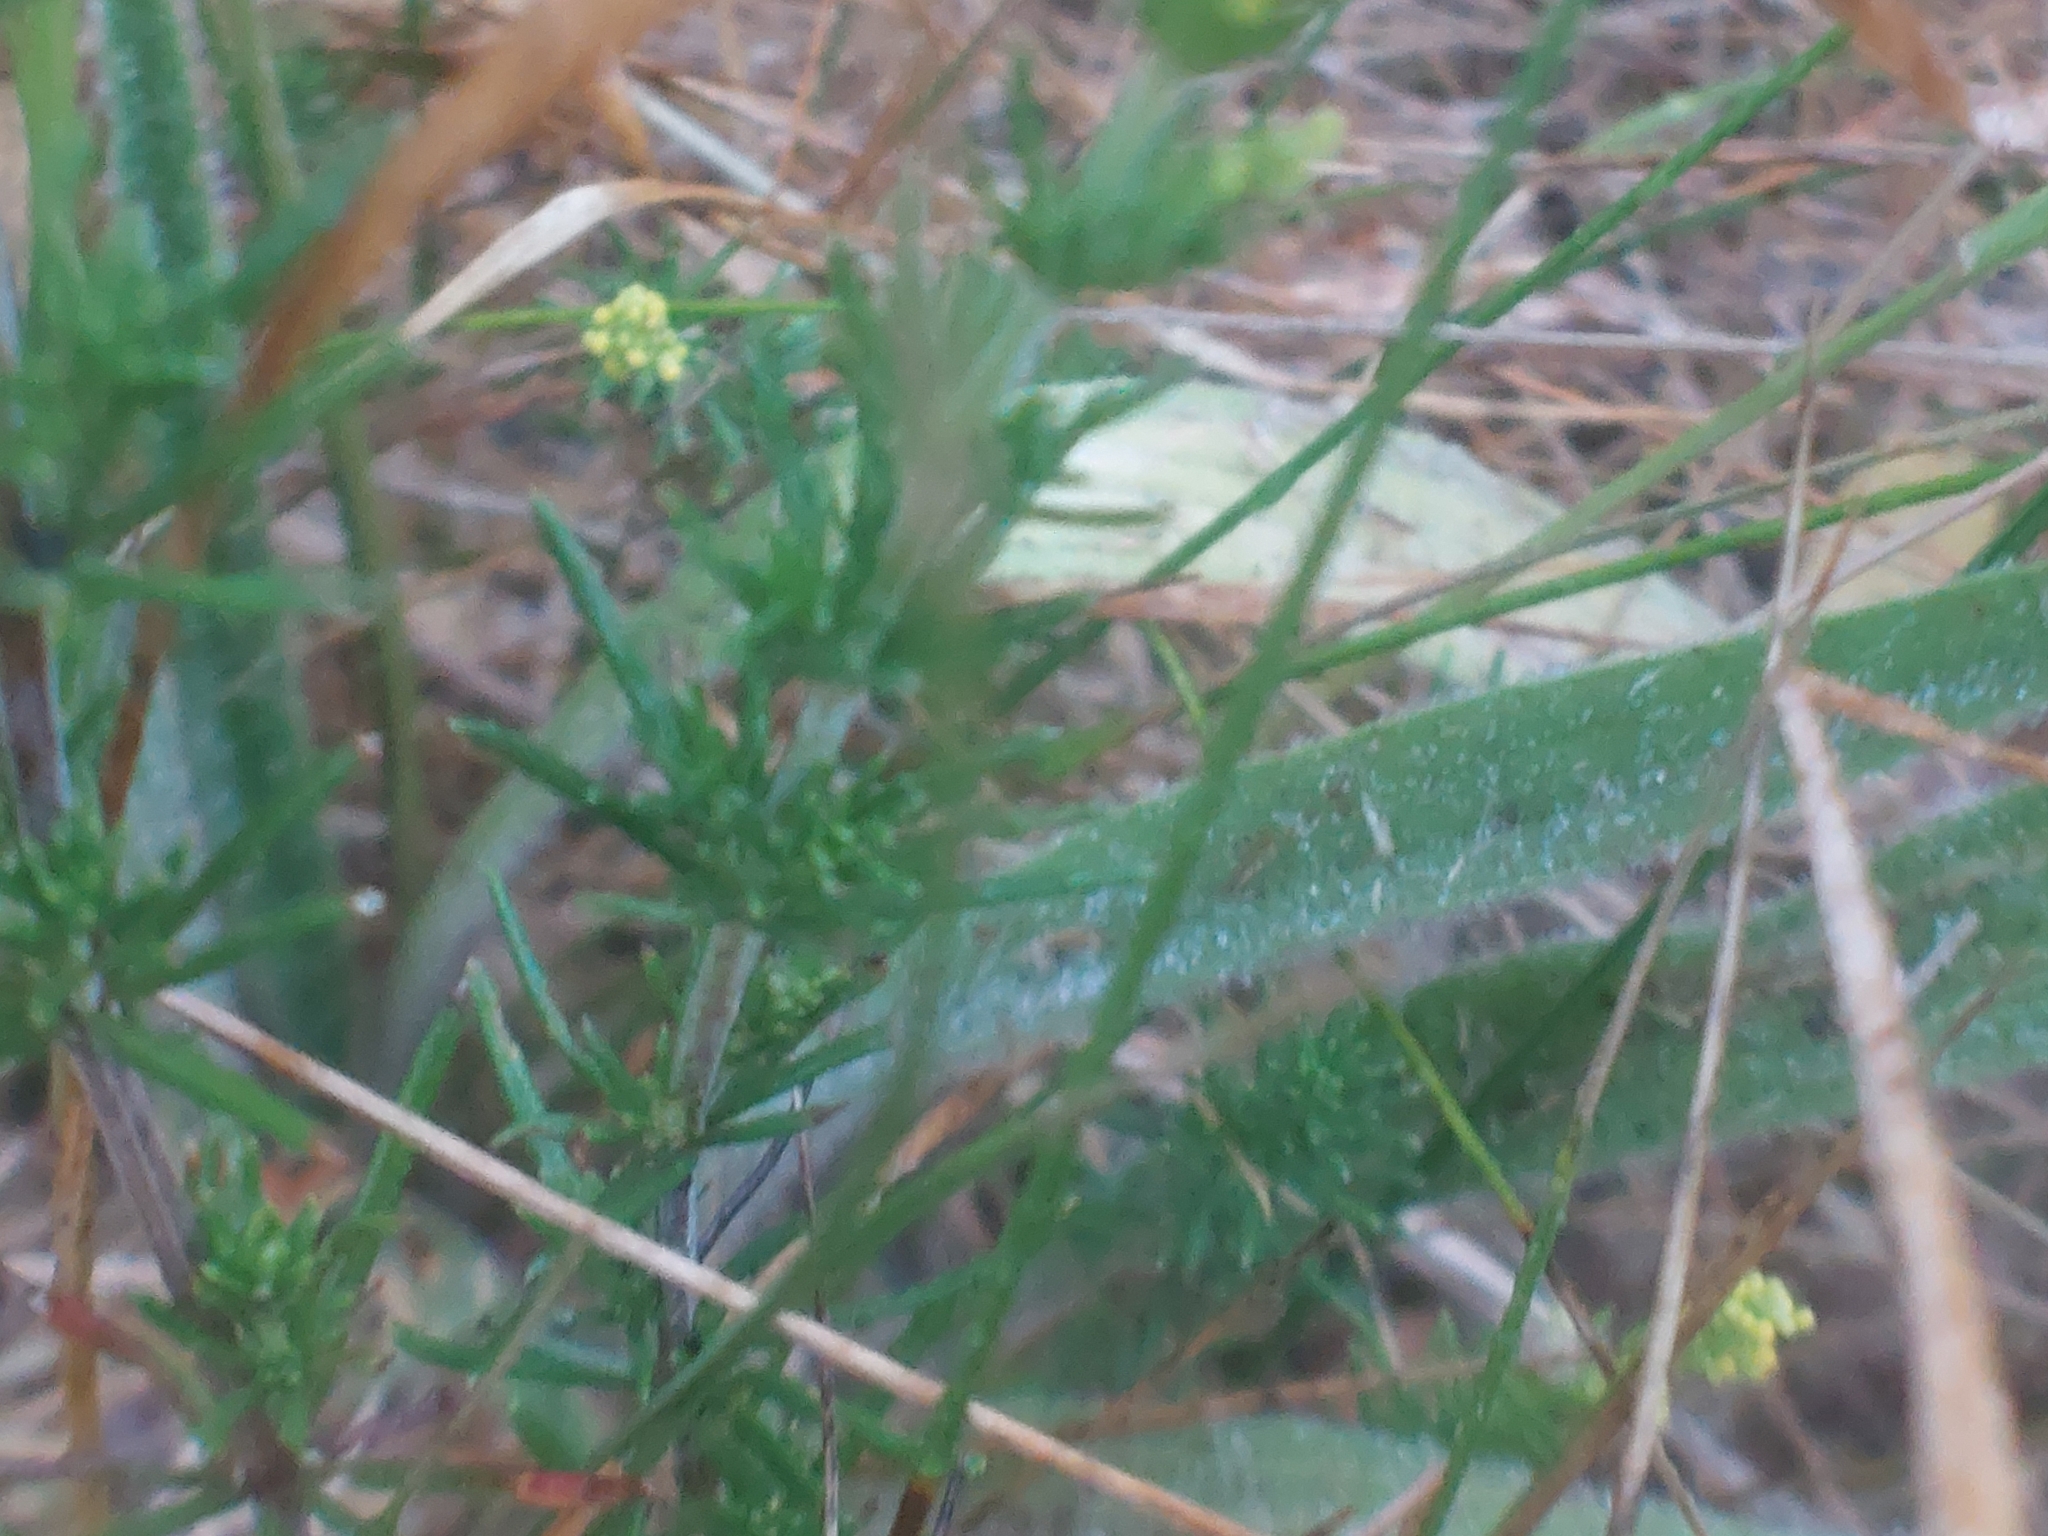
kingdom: Plantae
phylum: Tracheophyta
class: Magnoliopsida
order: Gentianales
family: Rubiaceae
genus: Galium
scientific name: Galium verum
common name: Lady's bedstraw
